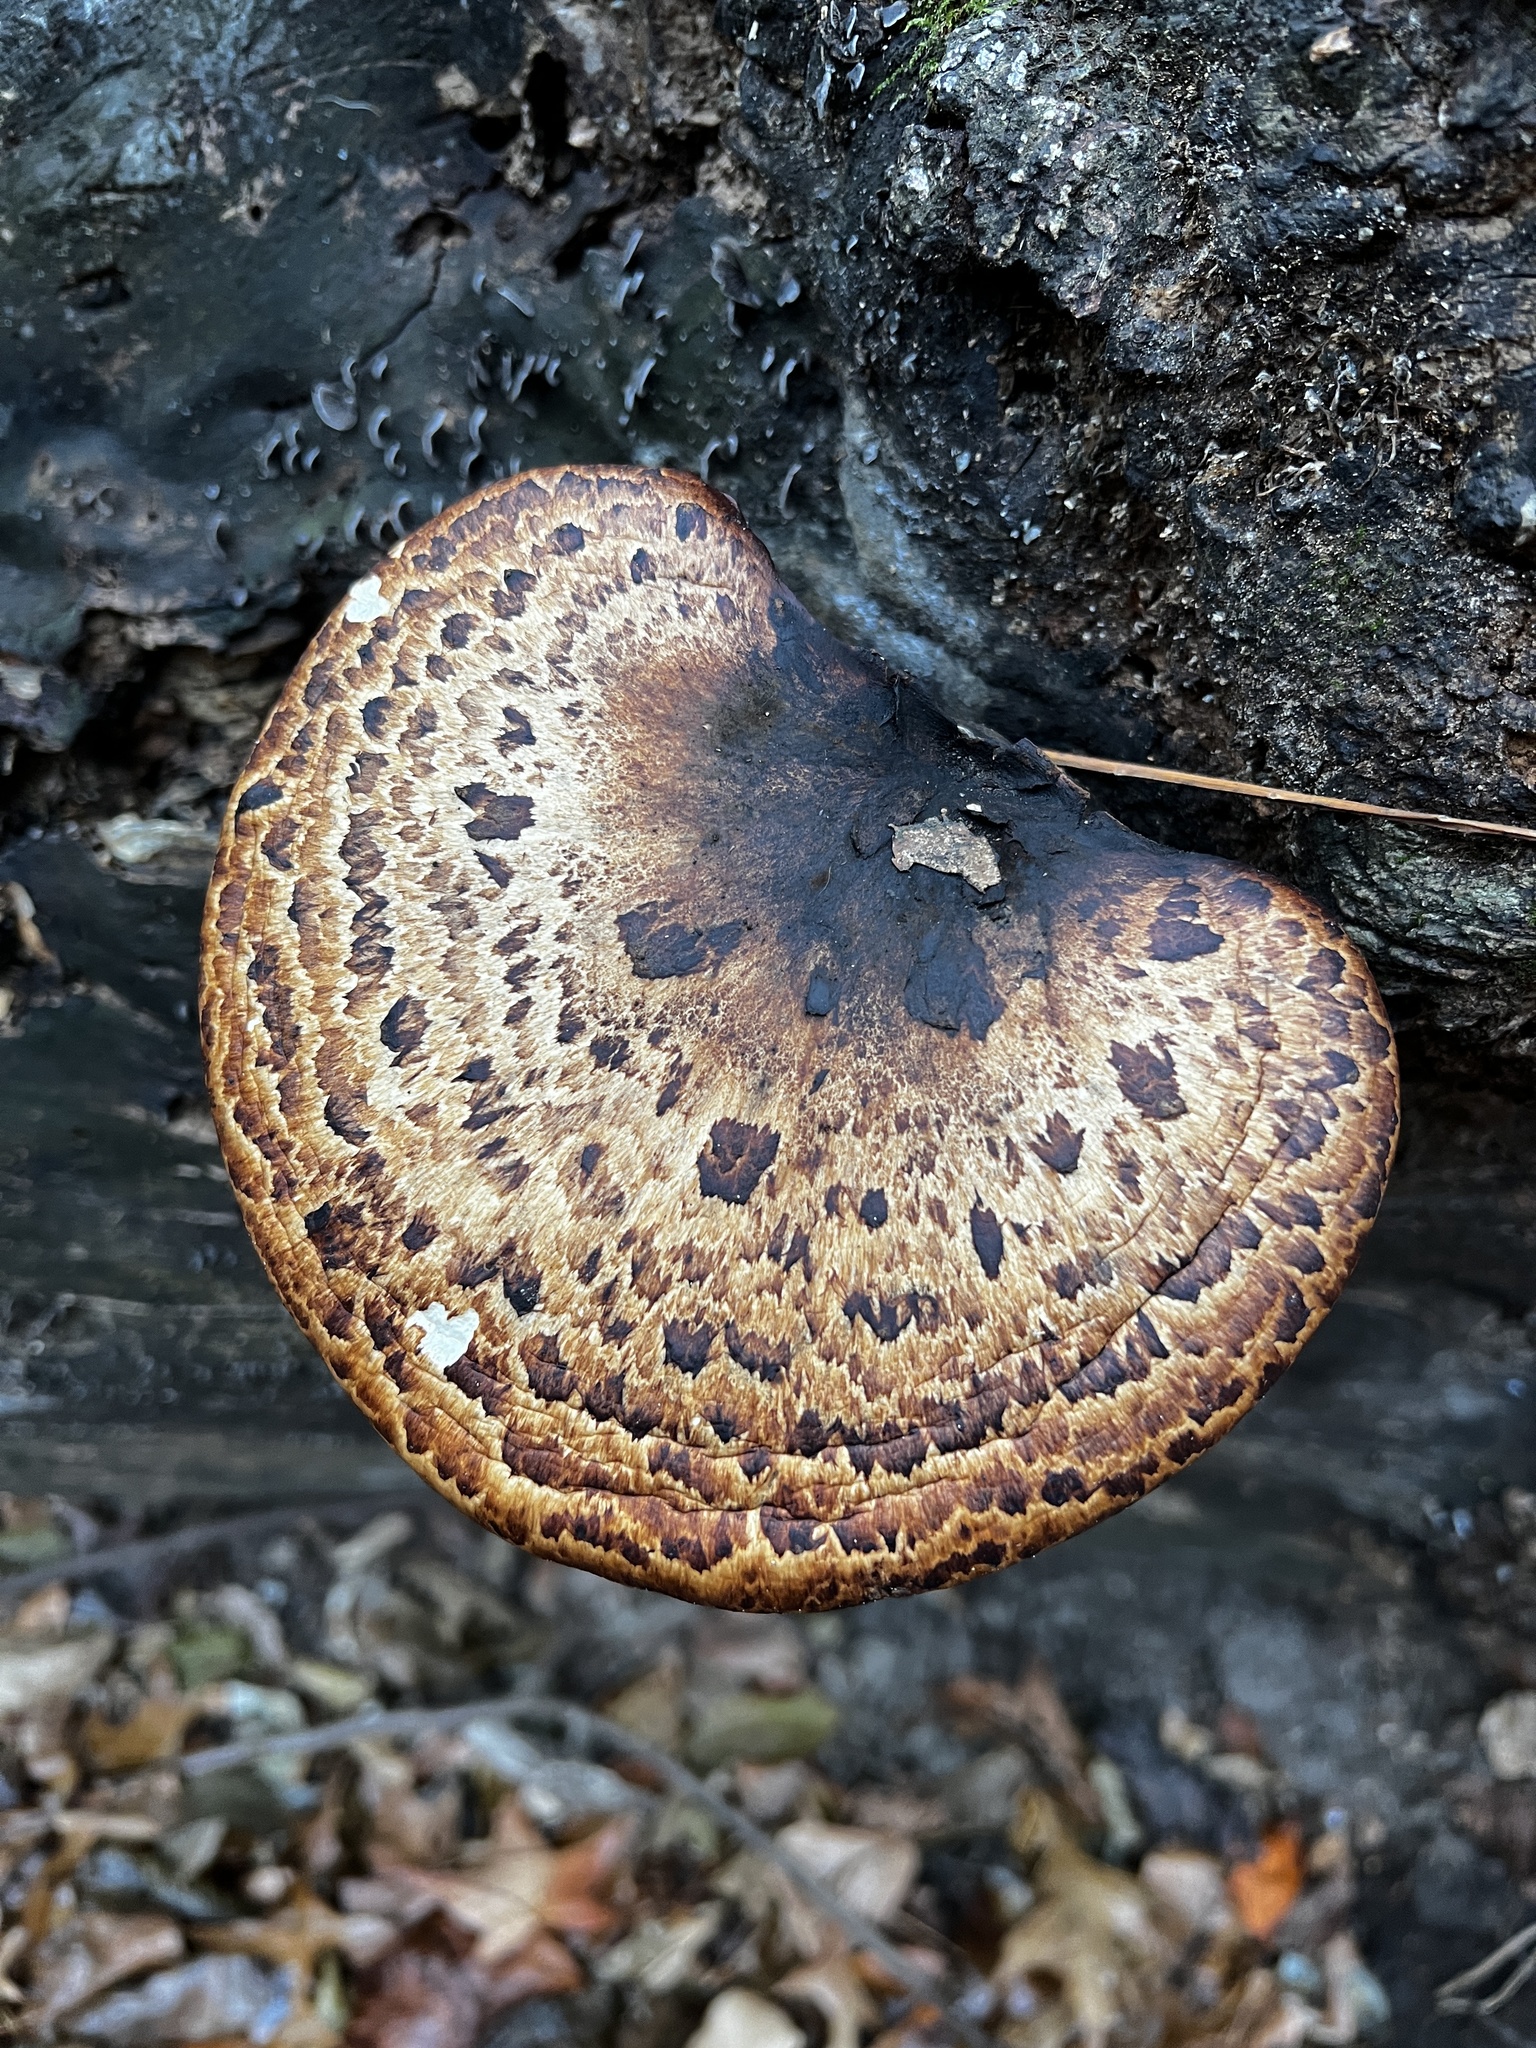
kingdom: Fungi
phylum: Basidiomycota
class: Agaricomycetes
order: Polyporales
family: Polyporaceae
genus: Cerioporus
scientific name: Cerioporus squamosus
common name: Dryad's saddle
